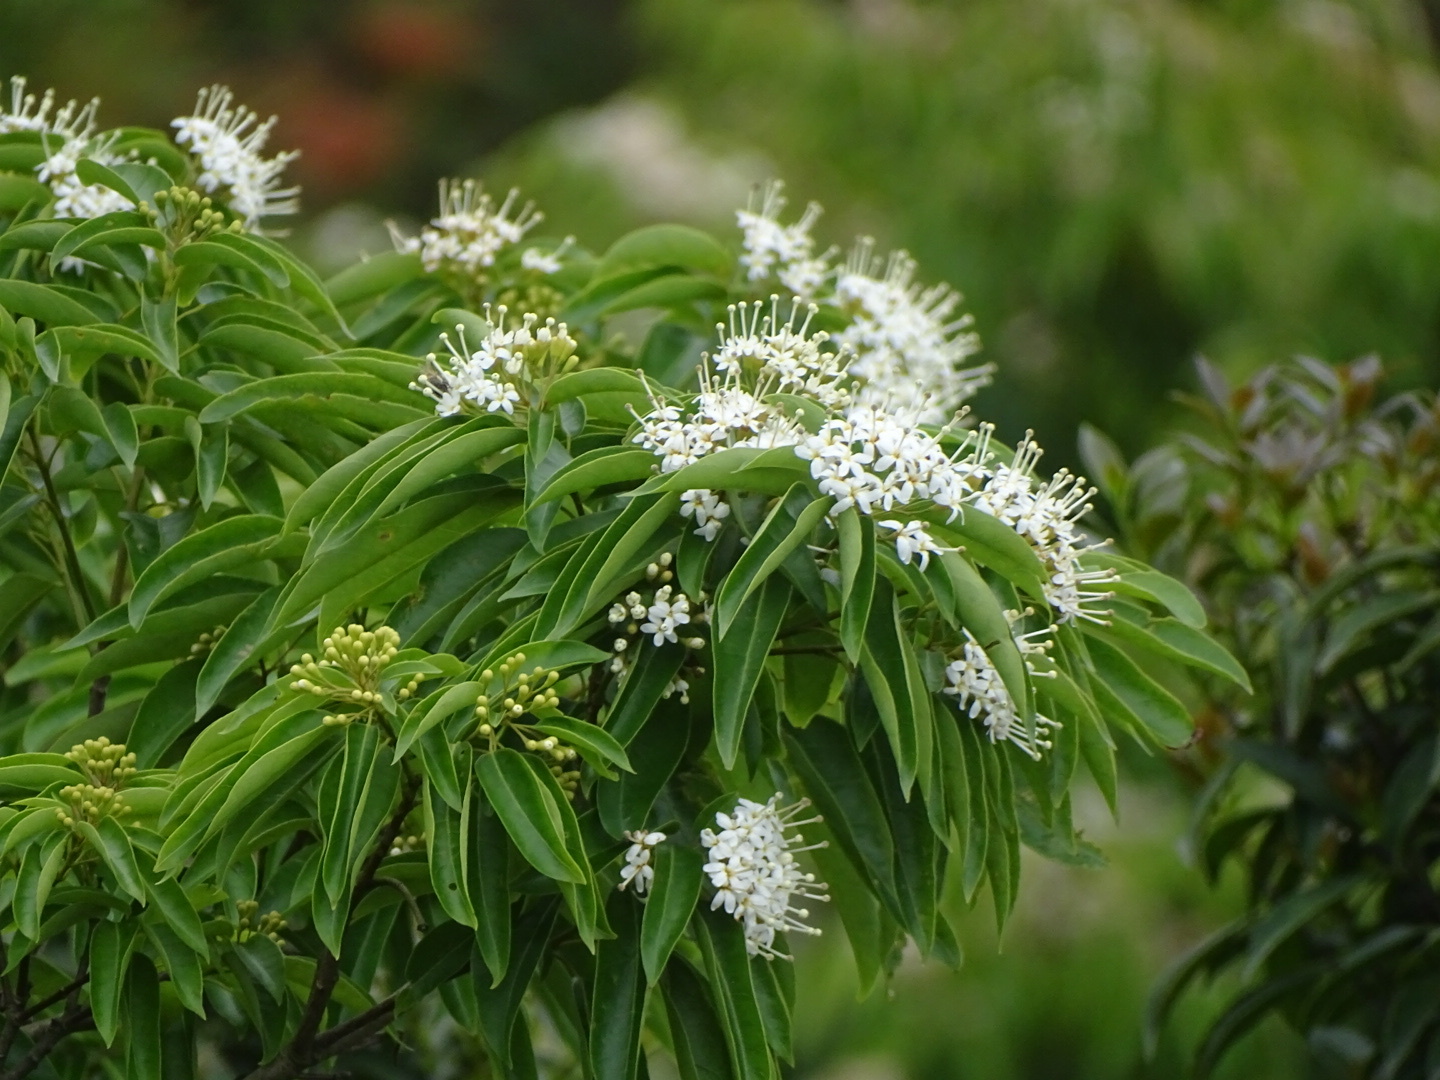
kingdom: Plantae
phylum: Tracheophyta
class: Magnoliopsida
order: Malvales
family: Malvaceae
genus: Reevesia
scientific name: Reevesia thyrsoidea
